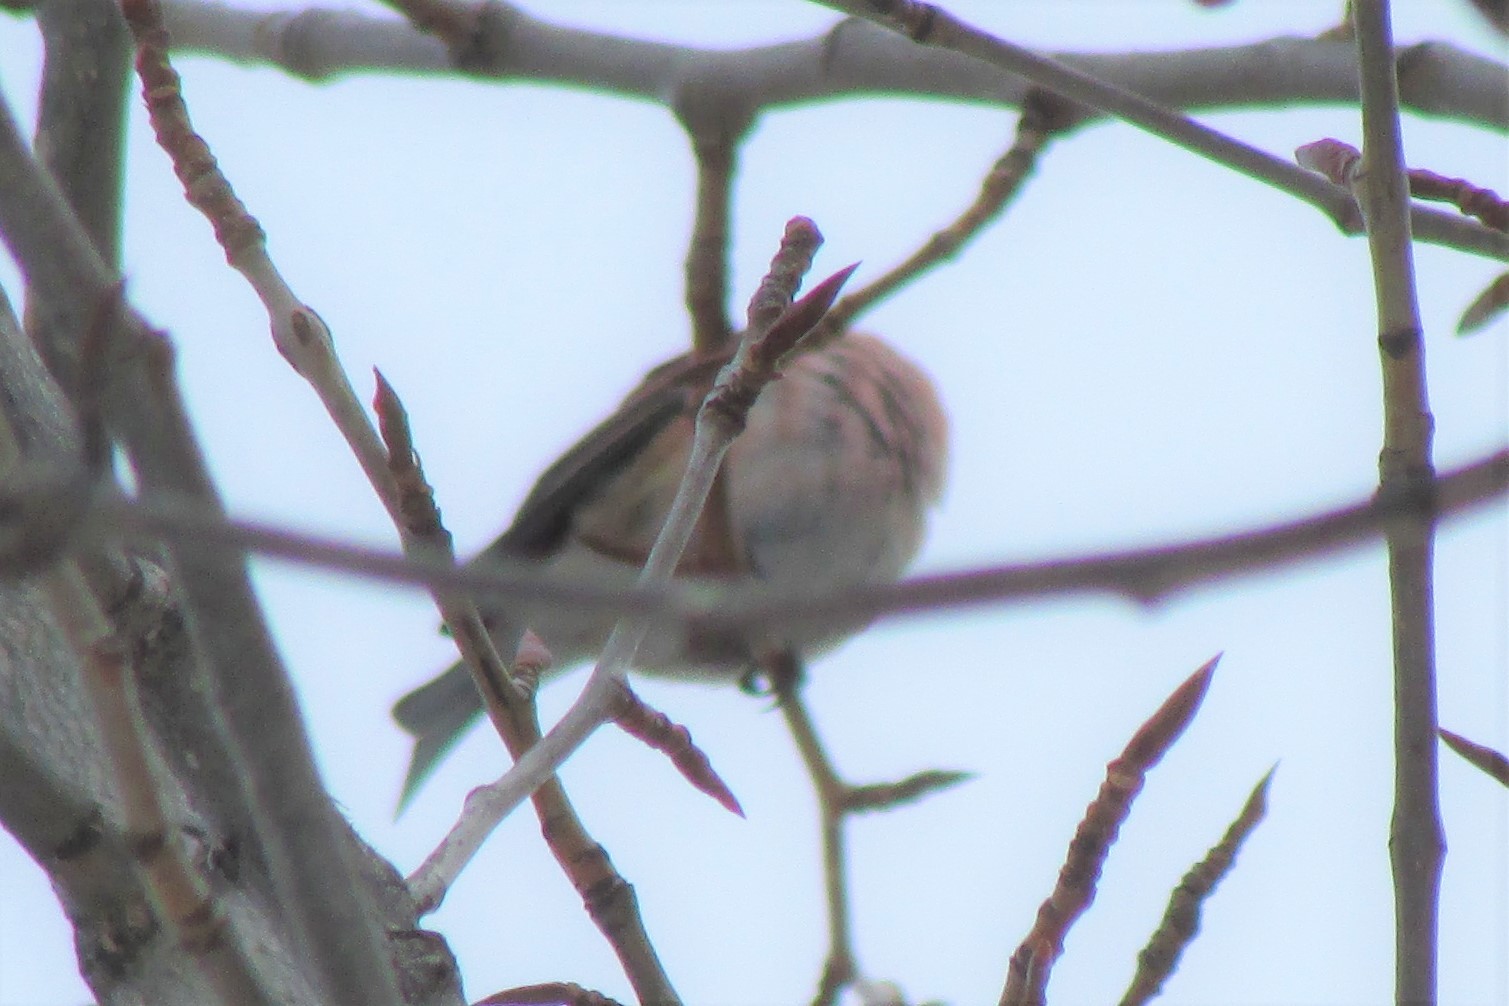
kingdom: Animalia
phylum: Chordata
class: Aves
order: Passeriformes
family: Fringillidae
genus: Haemorhous
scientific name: Haemorhous purpureus
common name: Purple finch
